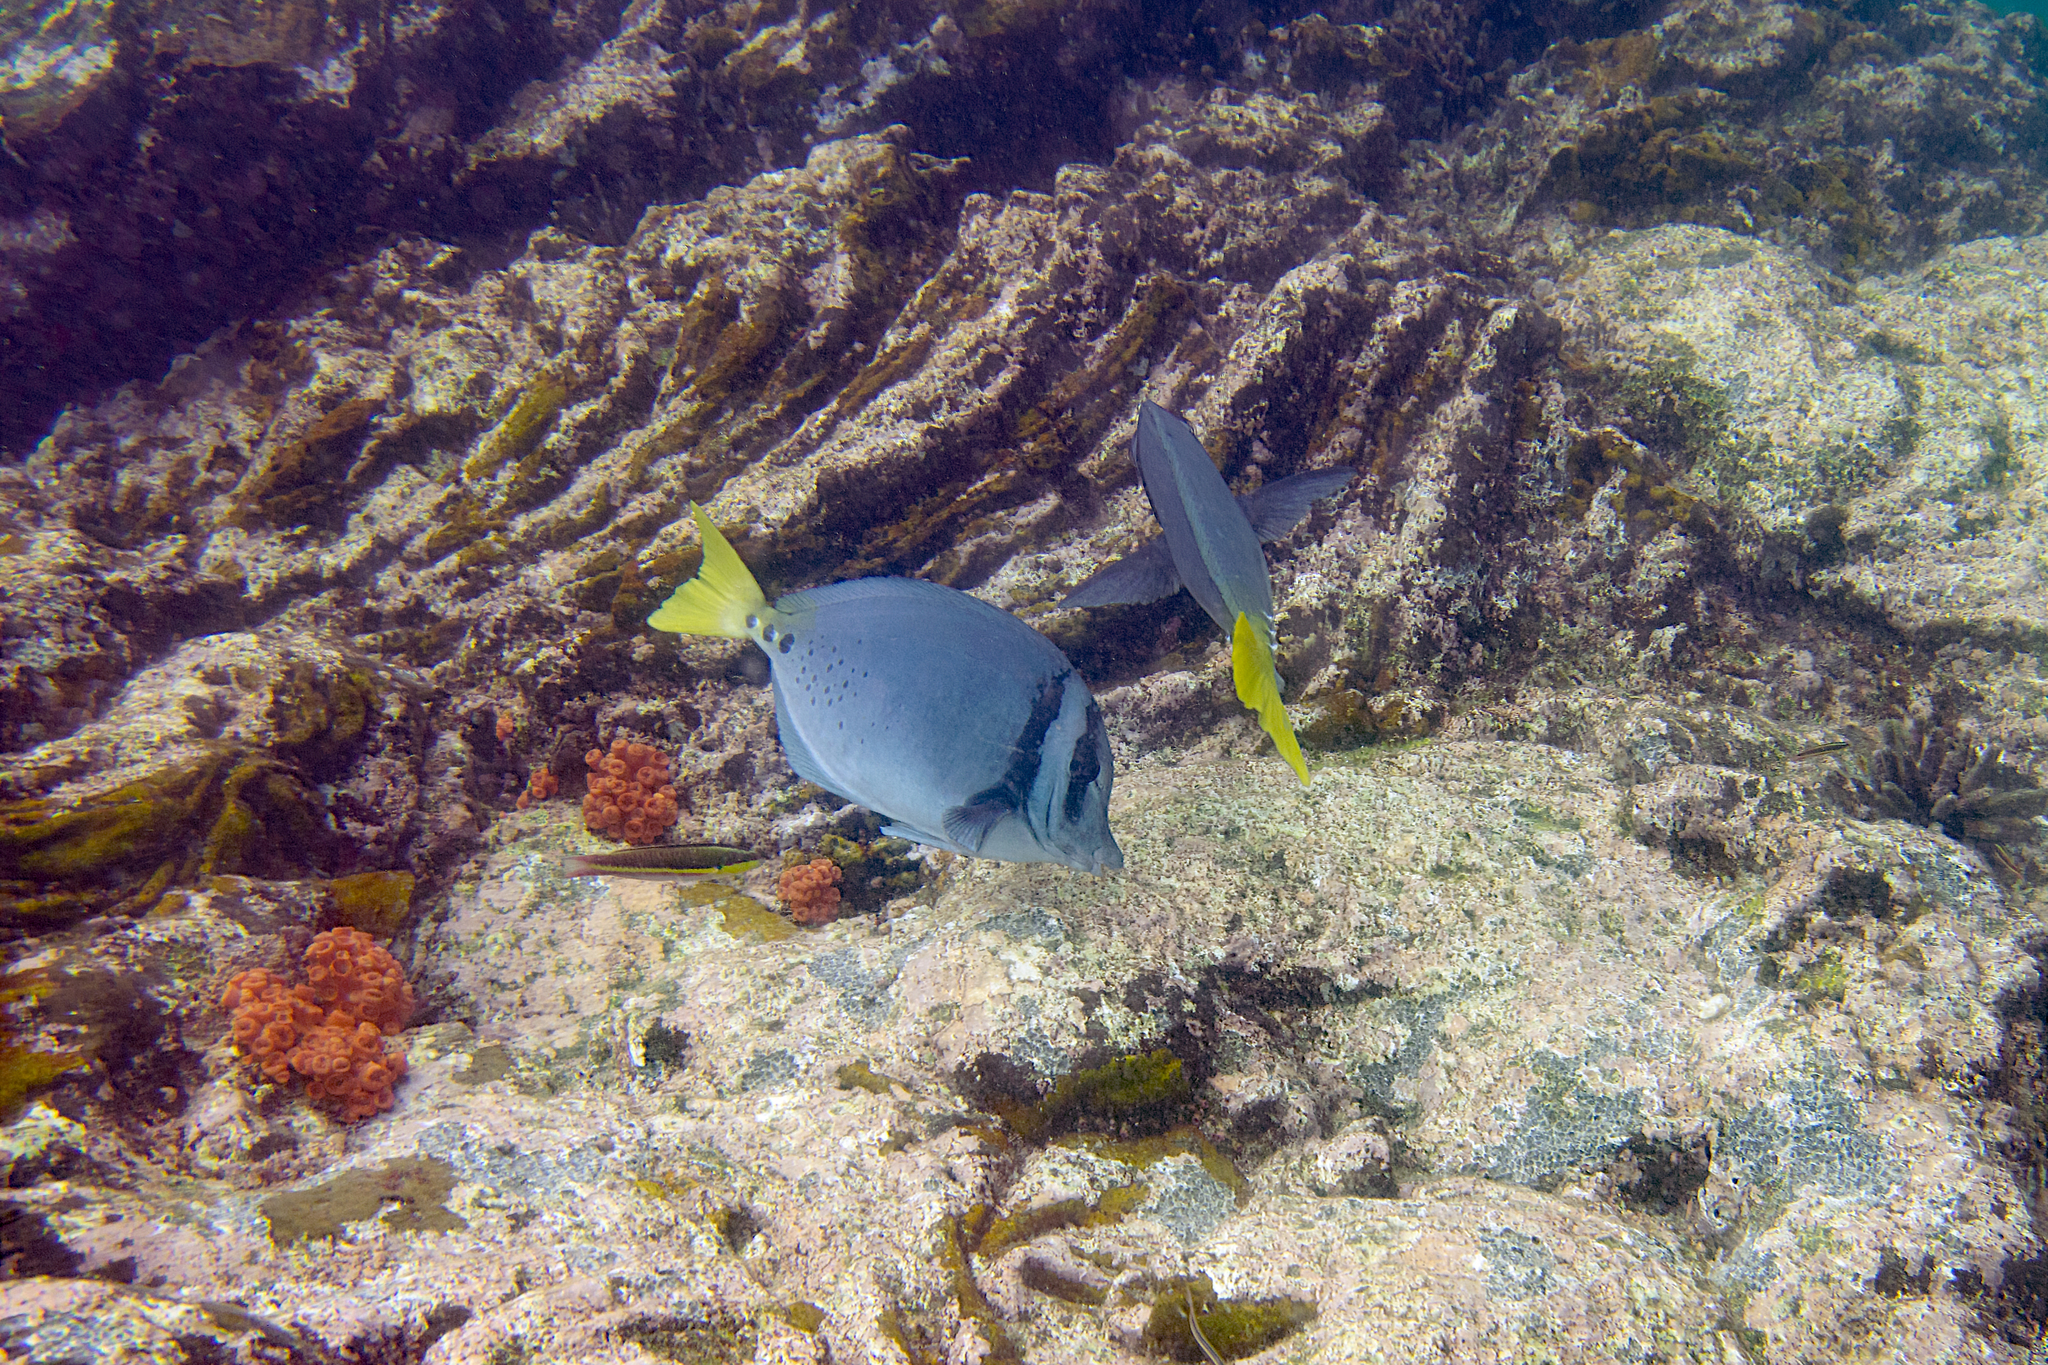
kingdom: Animalia
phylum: Chordata
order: Perciformes
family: Acanthuridae
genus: Prionurus
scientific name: Prionurus laticlavius
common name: Razor surgeonfish
